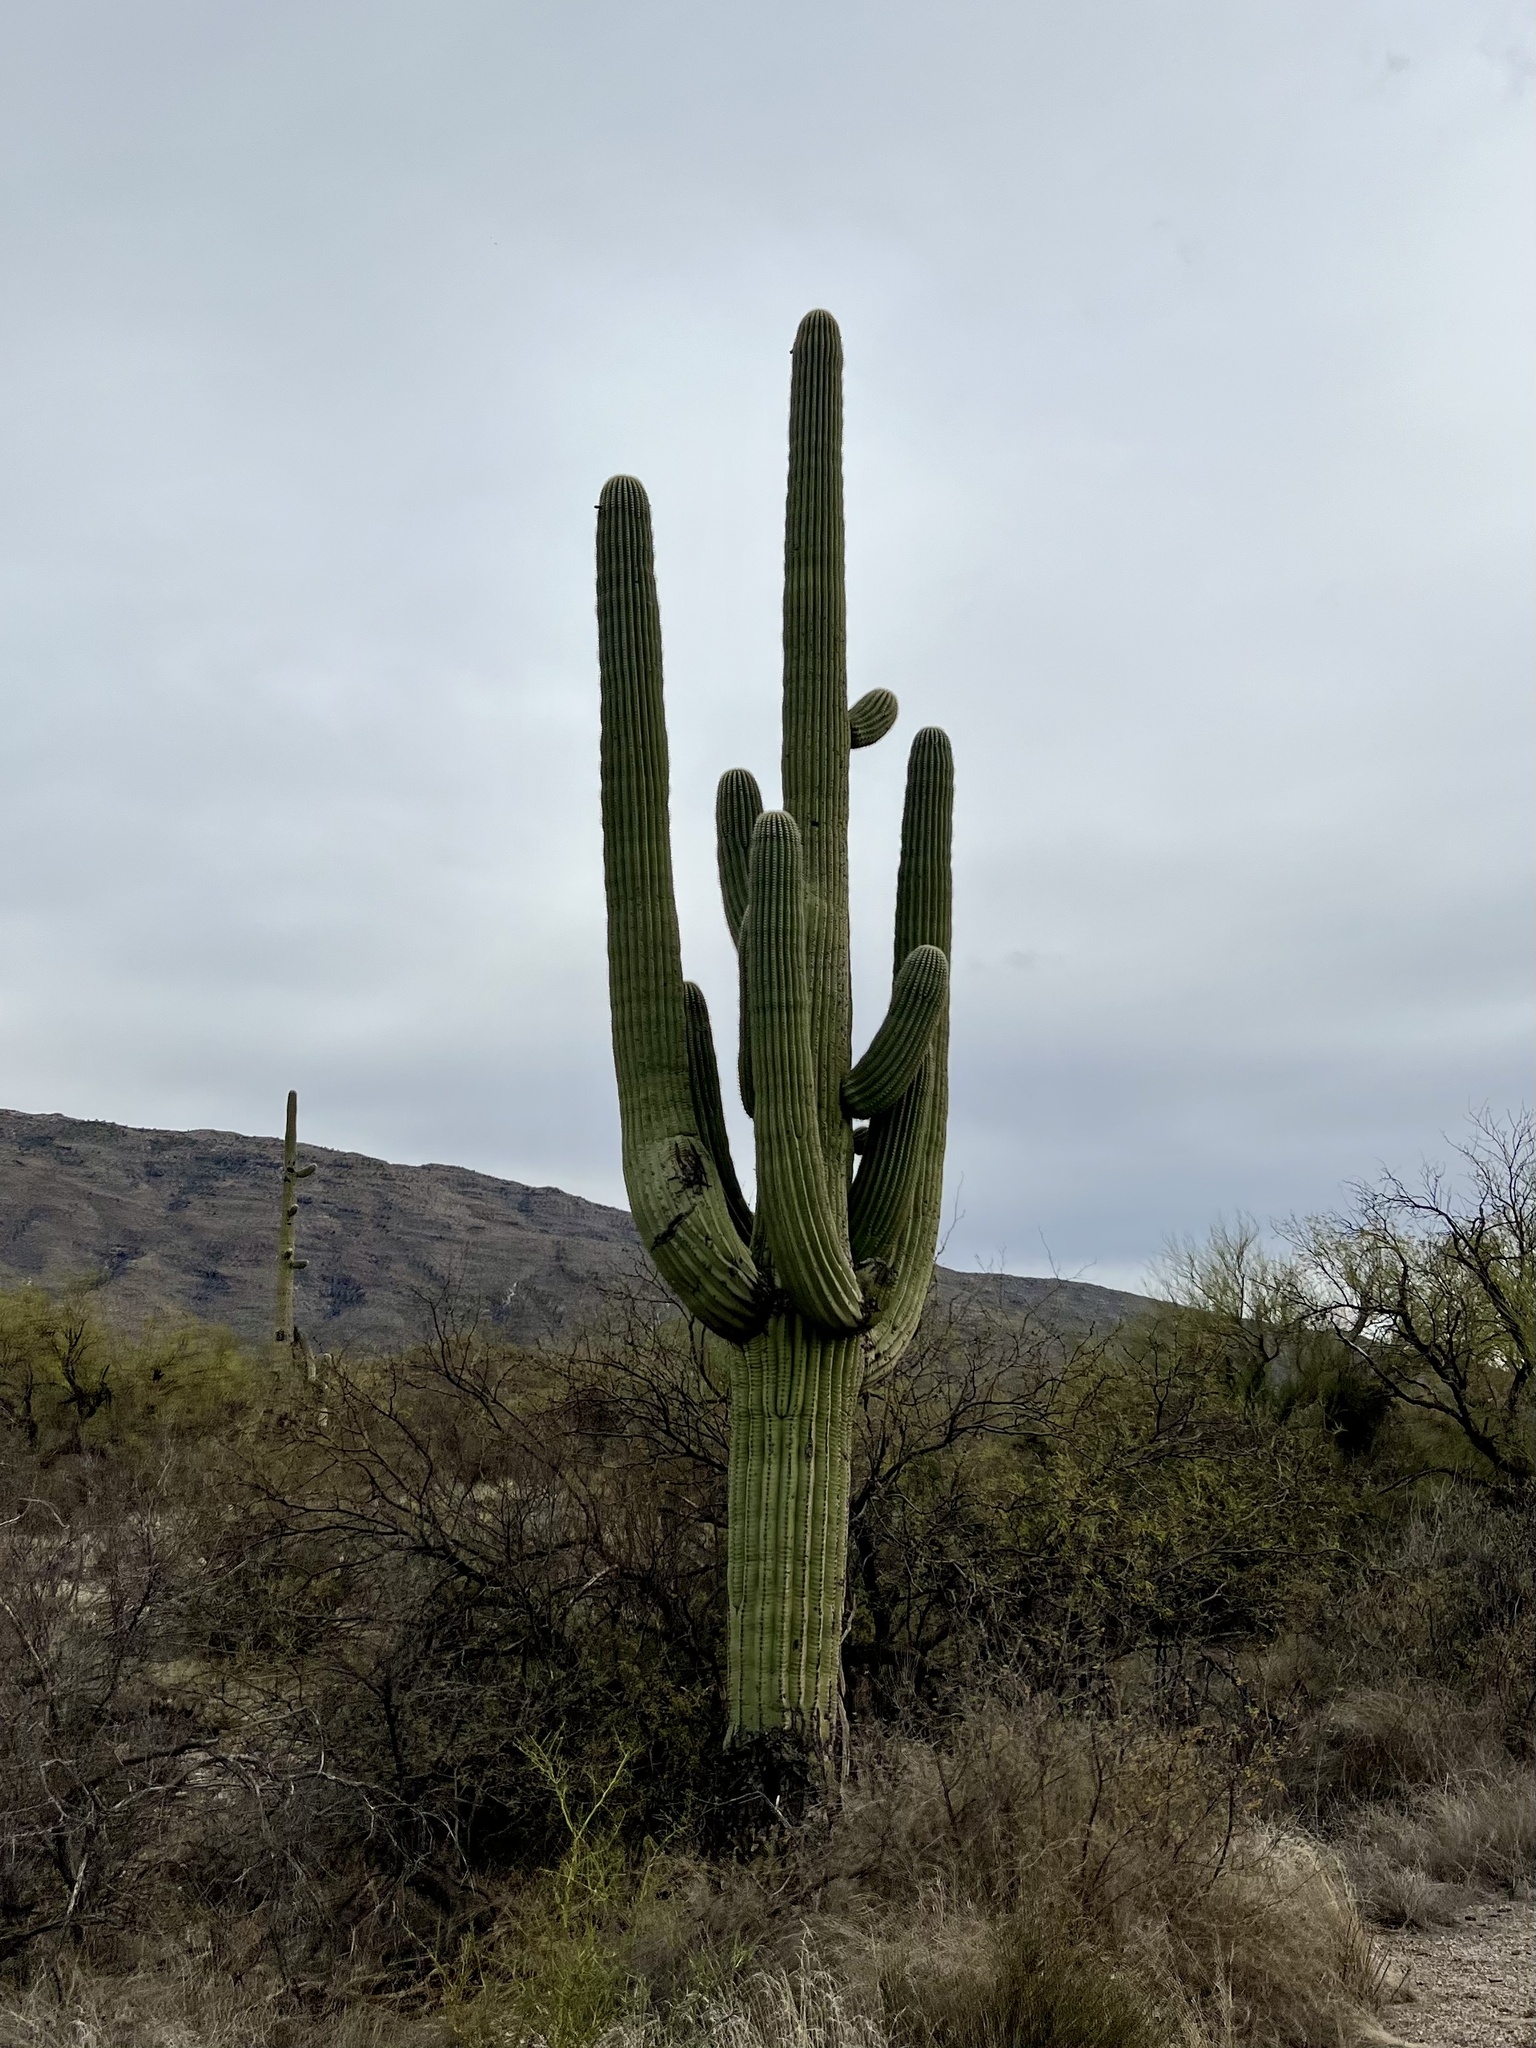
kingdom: Plantae
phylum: Tracheophyta
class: Magnoliopsida
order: Caryophyllales
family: Cactaceae
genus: Carnegiea
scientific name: Carnegiea gigantea
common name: Saguaro
